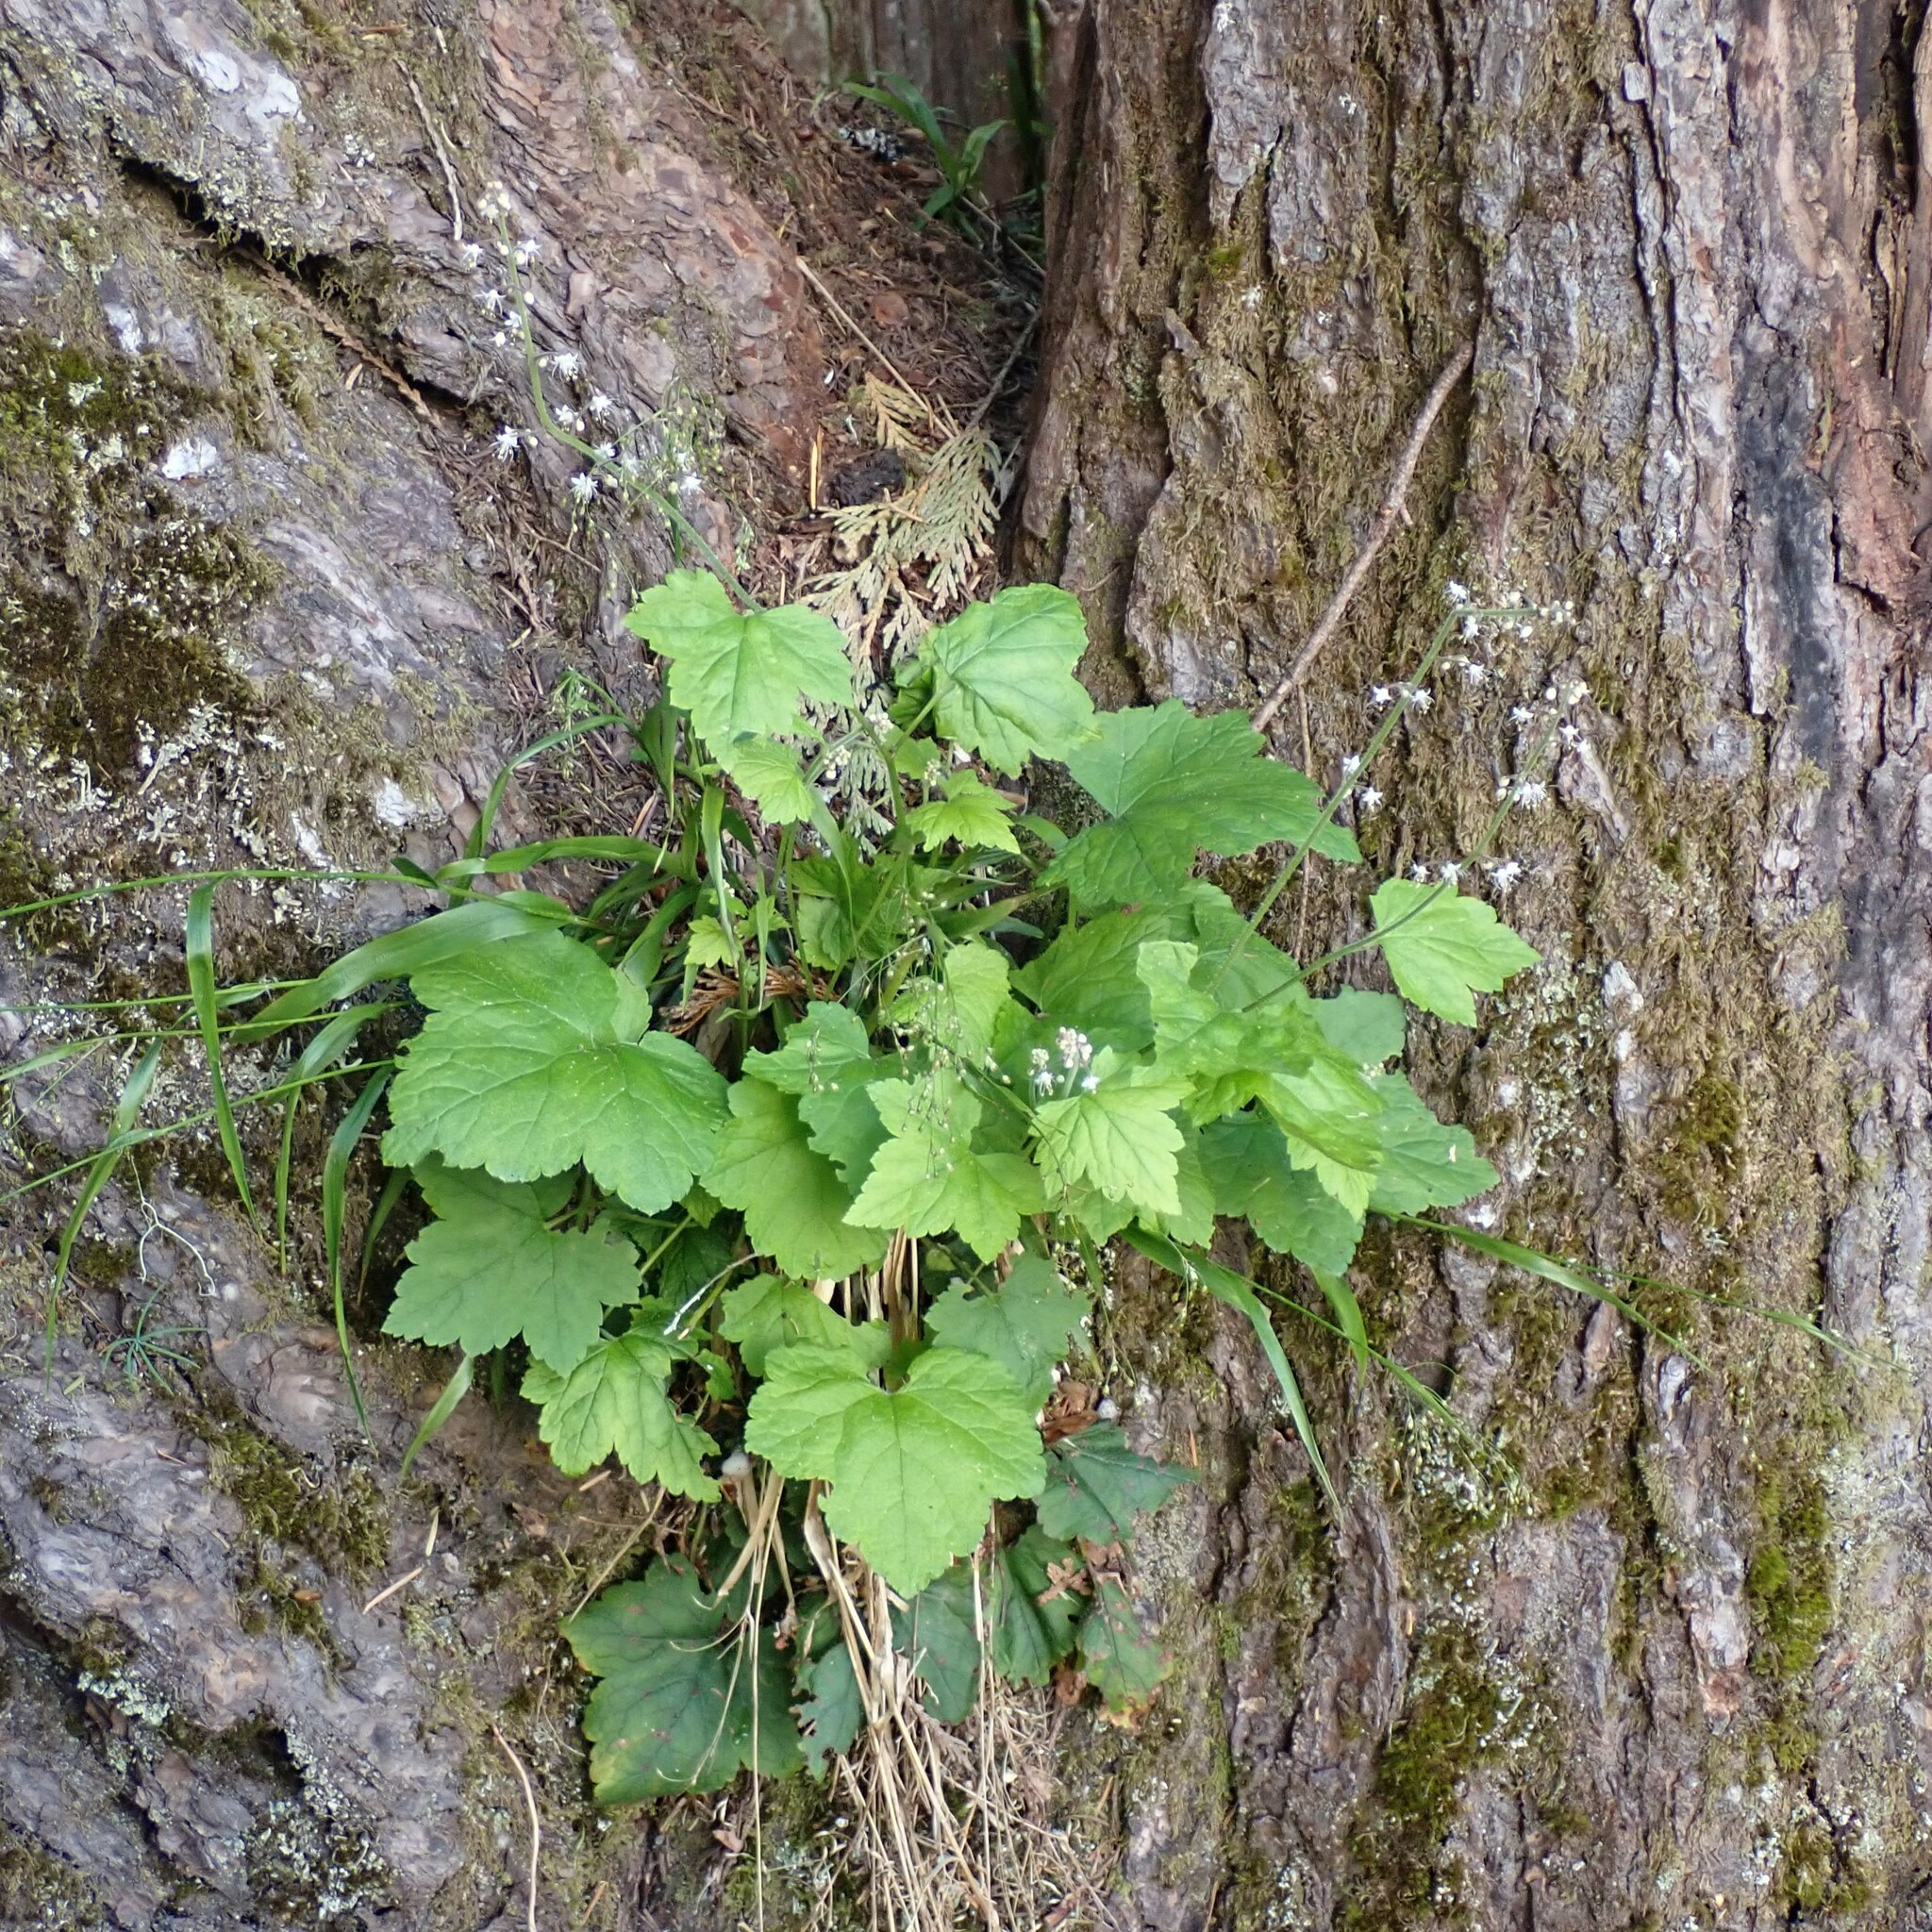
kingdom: Plantae
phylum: Tracheophyta
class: Magnoliopsida
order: Saxifragales
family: Saxifragaceae
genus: Tiarella
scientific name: Tiarella trifoliata
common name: Sugar-scoop
